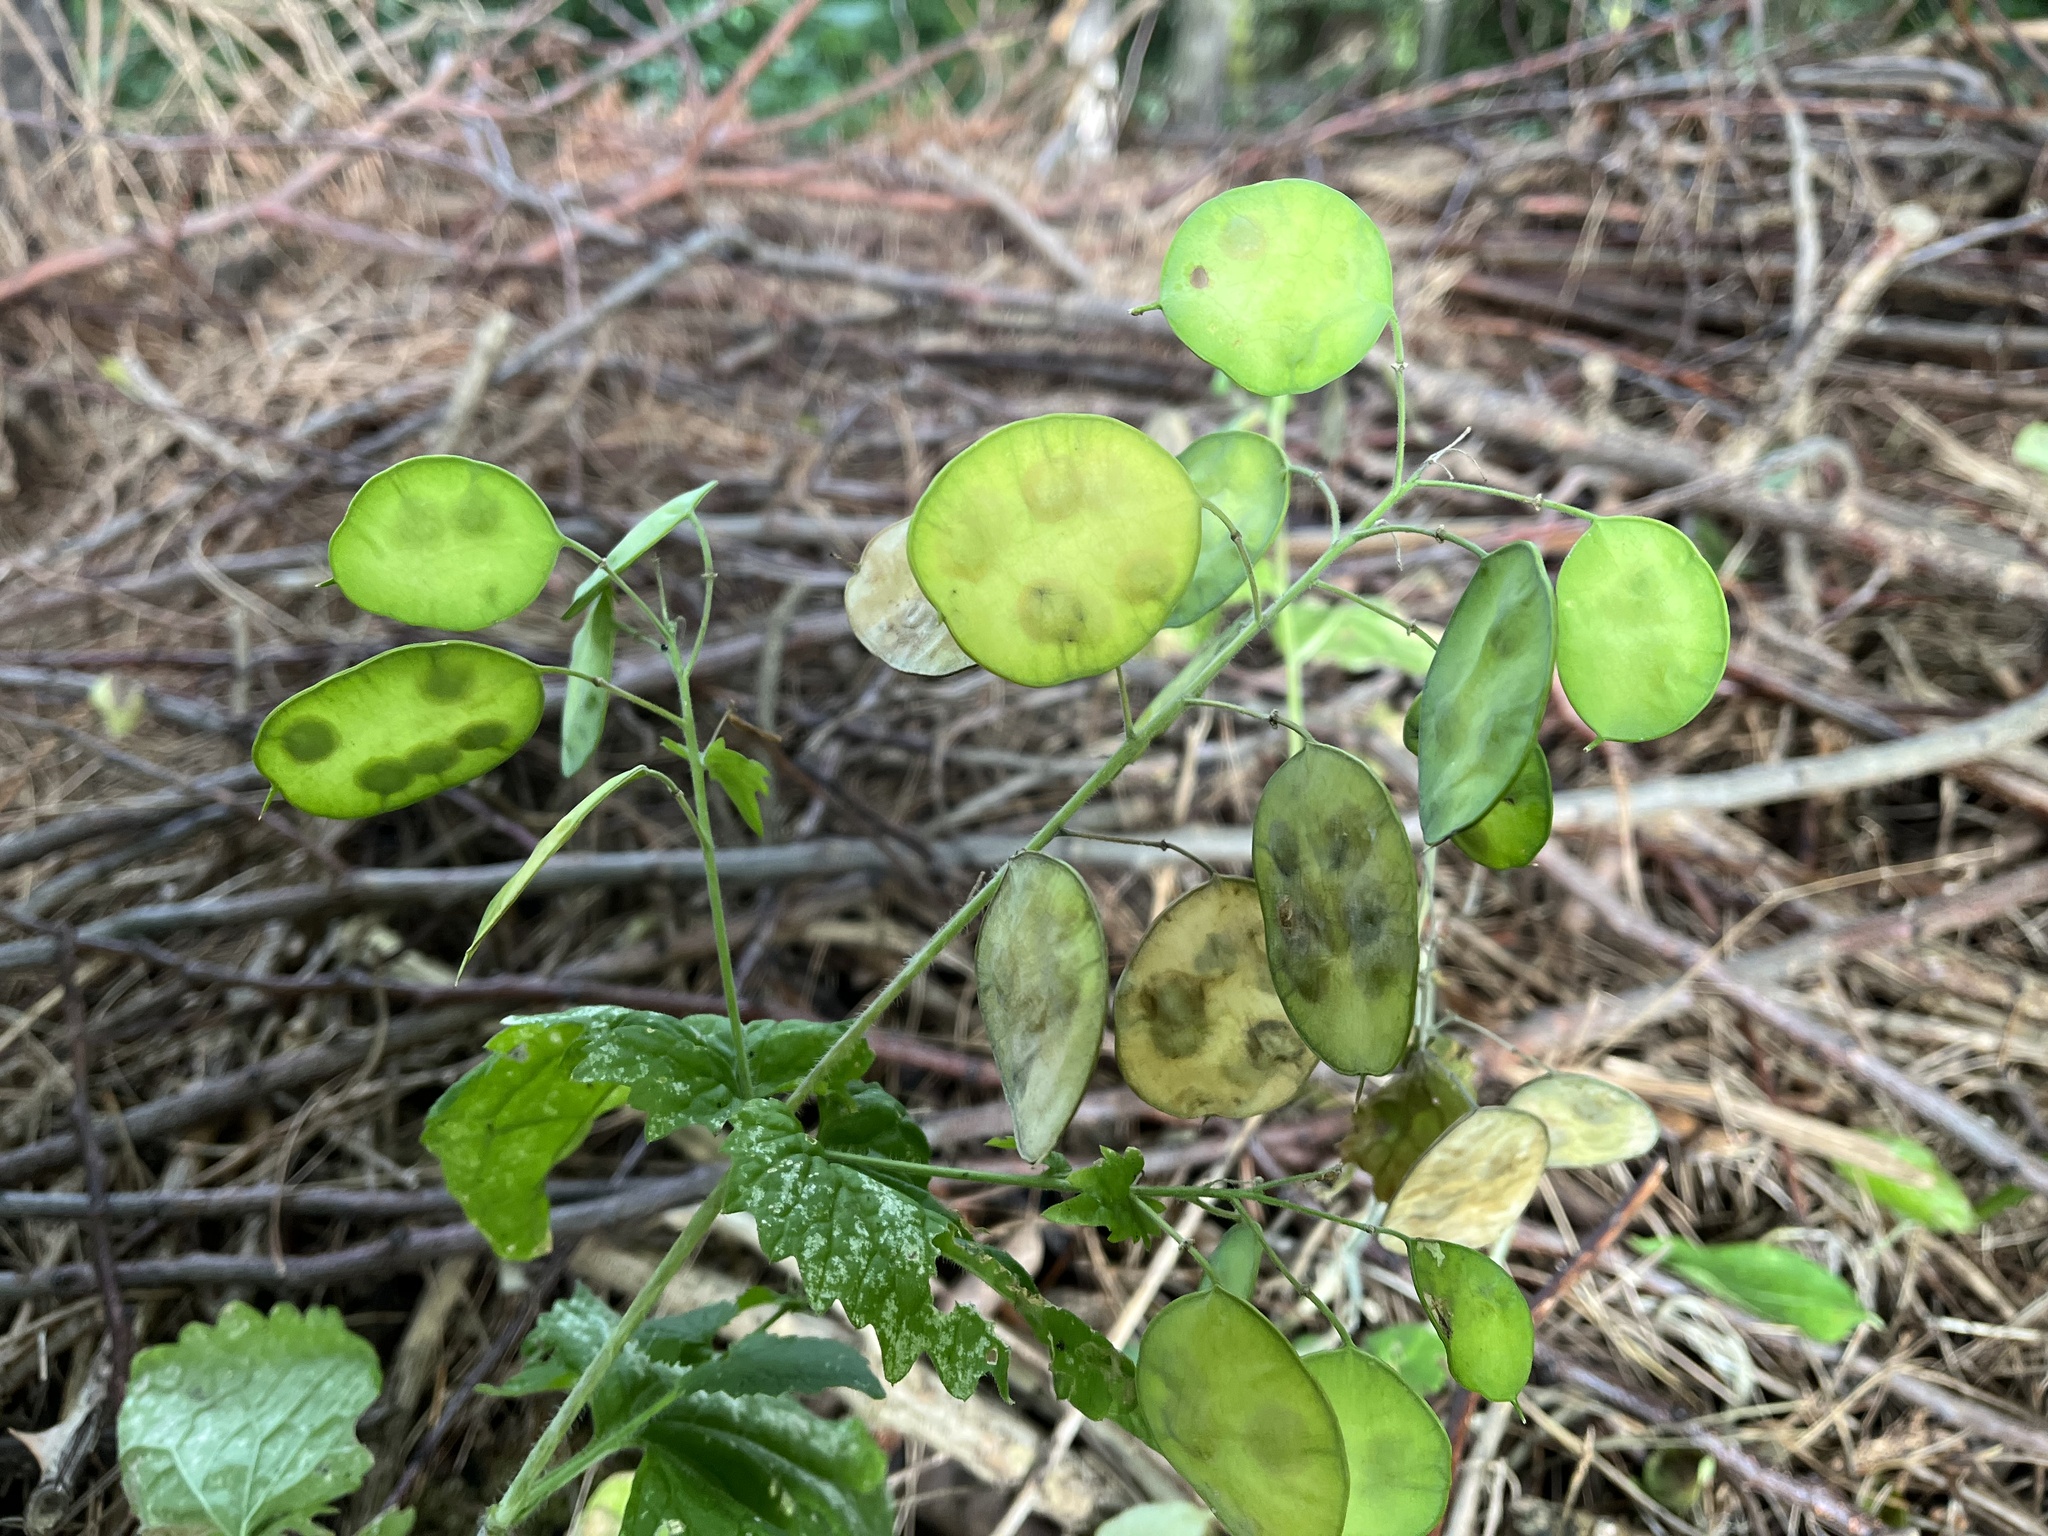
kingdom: Plantae
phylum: Tracheophyta
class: Magnoliopsida
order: Brassicales
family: Brassicaceae
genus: Lunaria
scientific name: Lunaria annua
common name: Honesty
